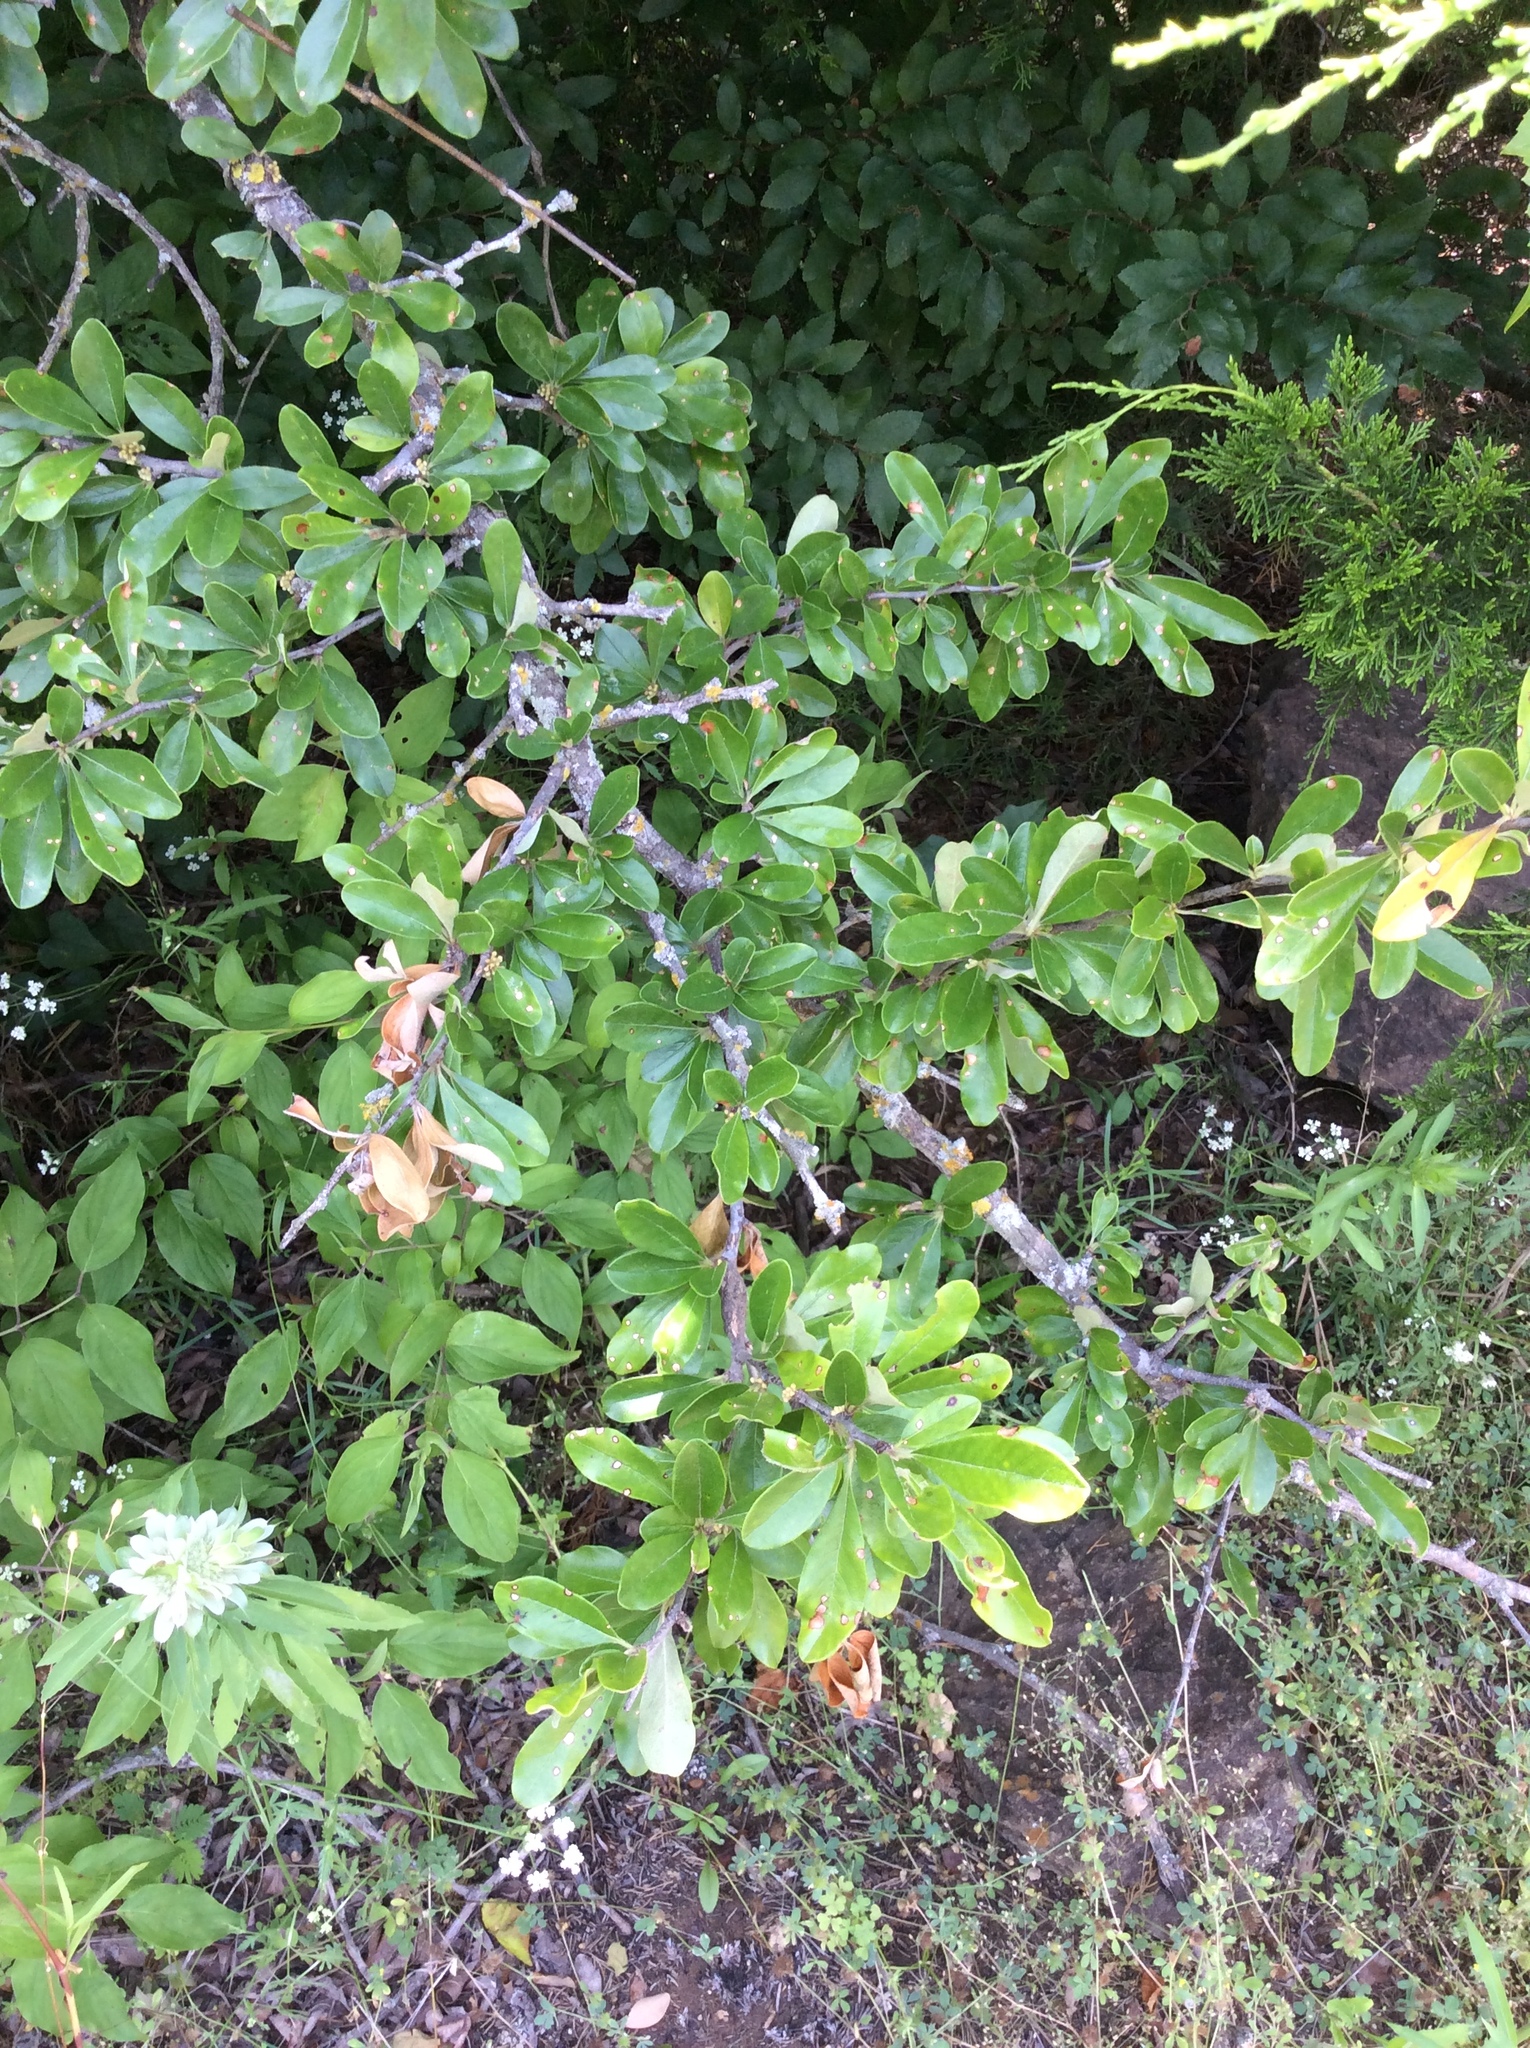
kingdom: Plantae
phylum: Tracheophyta
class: Magnoliopsida
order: Ericales
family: Sapotaceae
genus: Sideroxylon
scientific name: Sideroxylon lanuginosum
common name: Chittamwood
